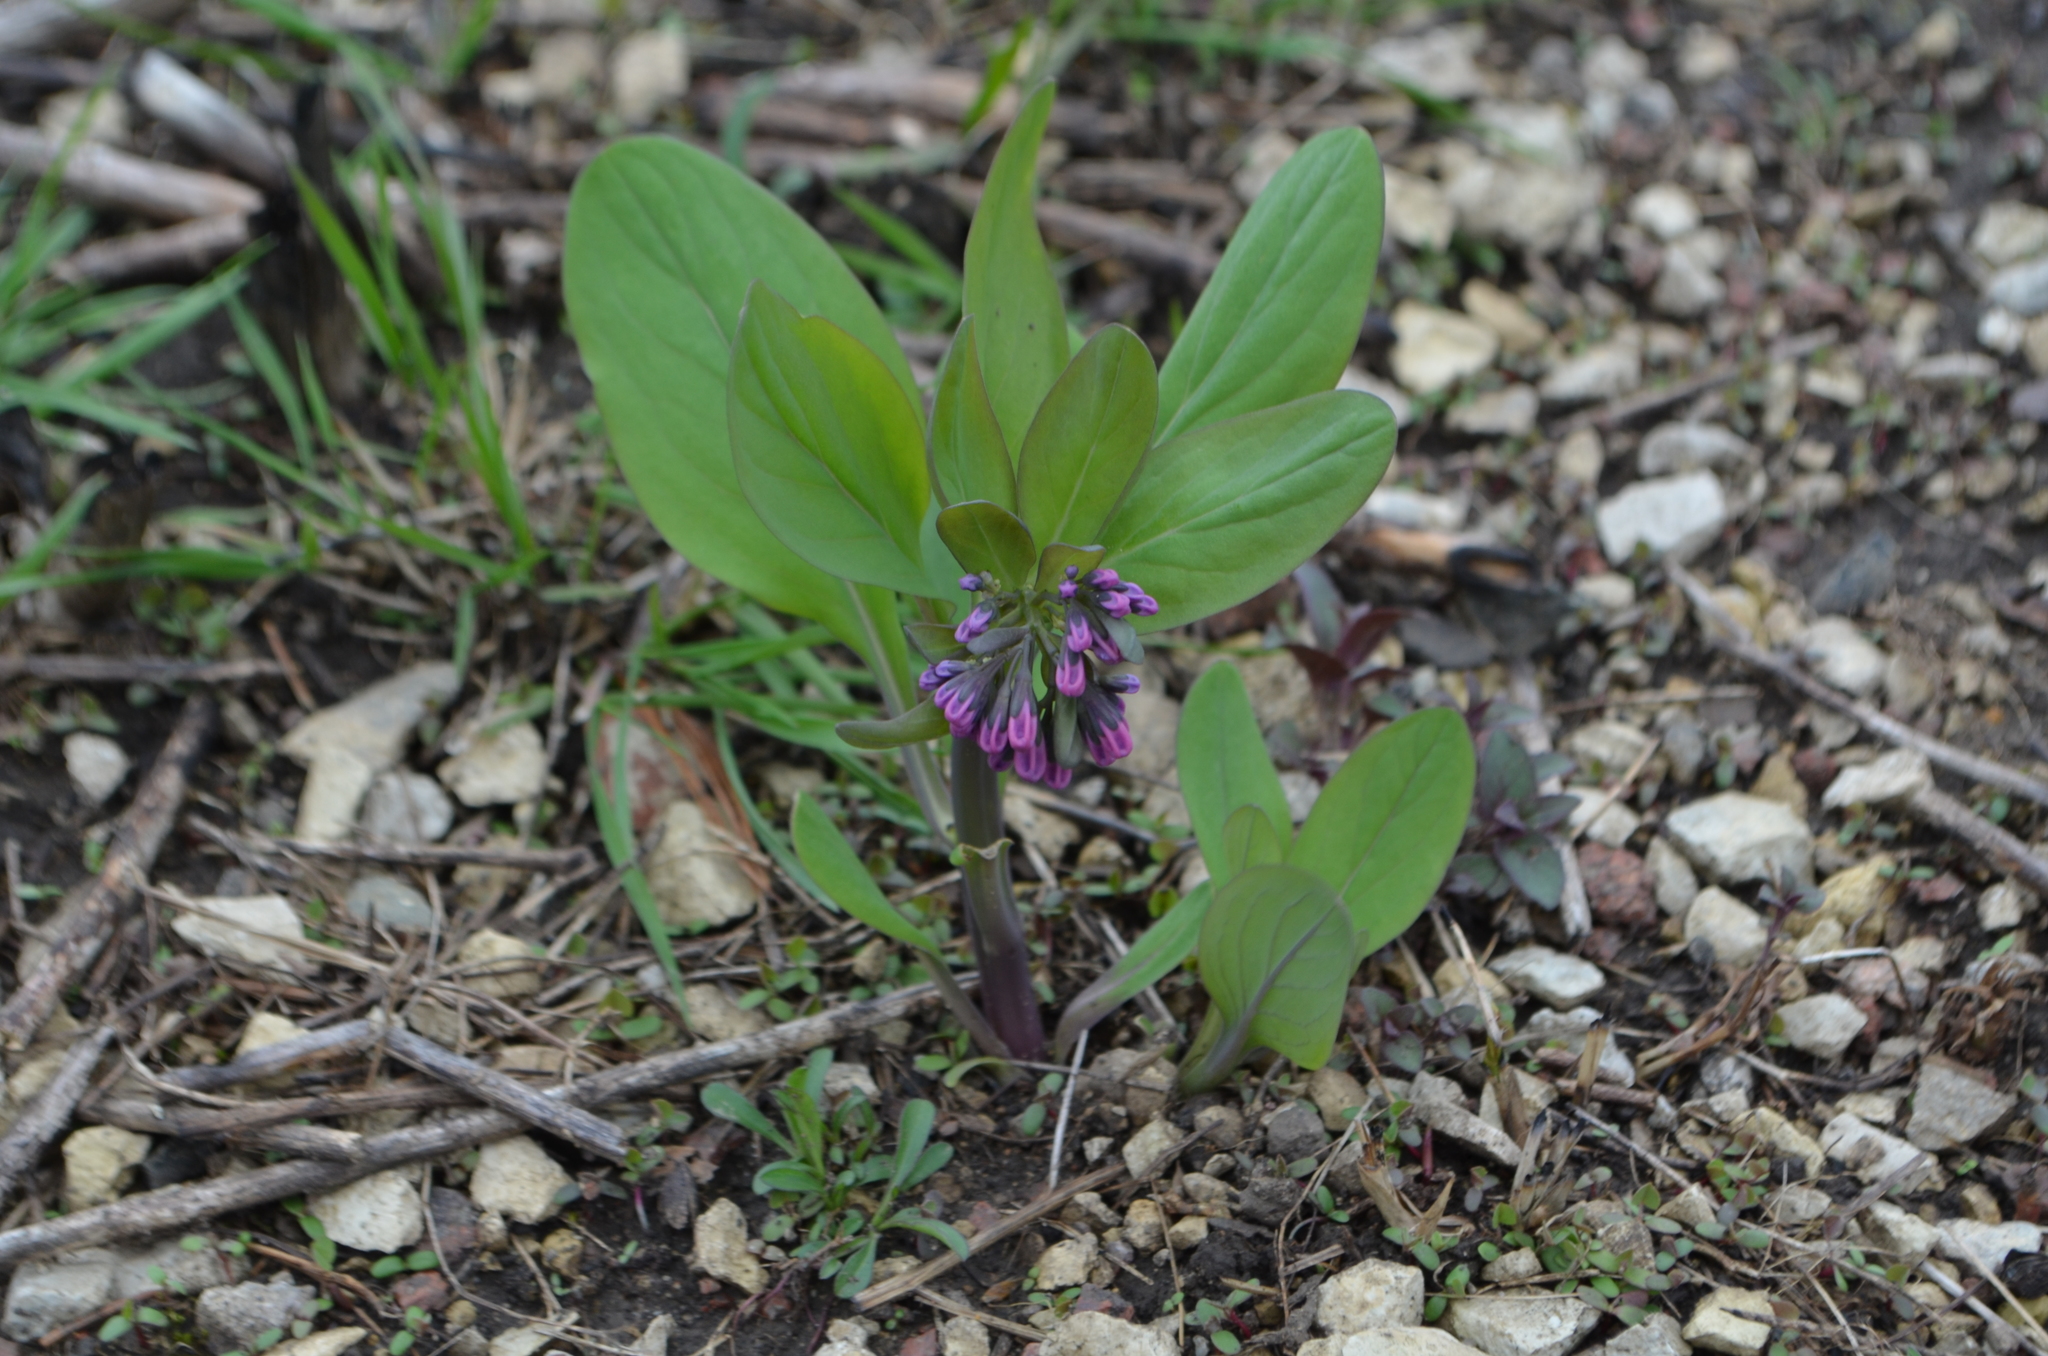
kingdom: Plantae
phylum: Tracheophyta
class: Magnoliopsida
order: Boraginales
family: Boraginaceae
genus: Mertensia
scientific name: Mertensia virginica
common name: Virginia bluebells
